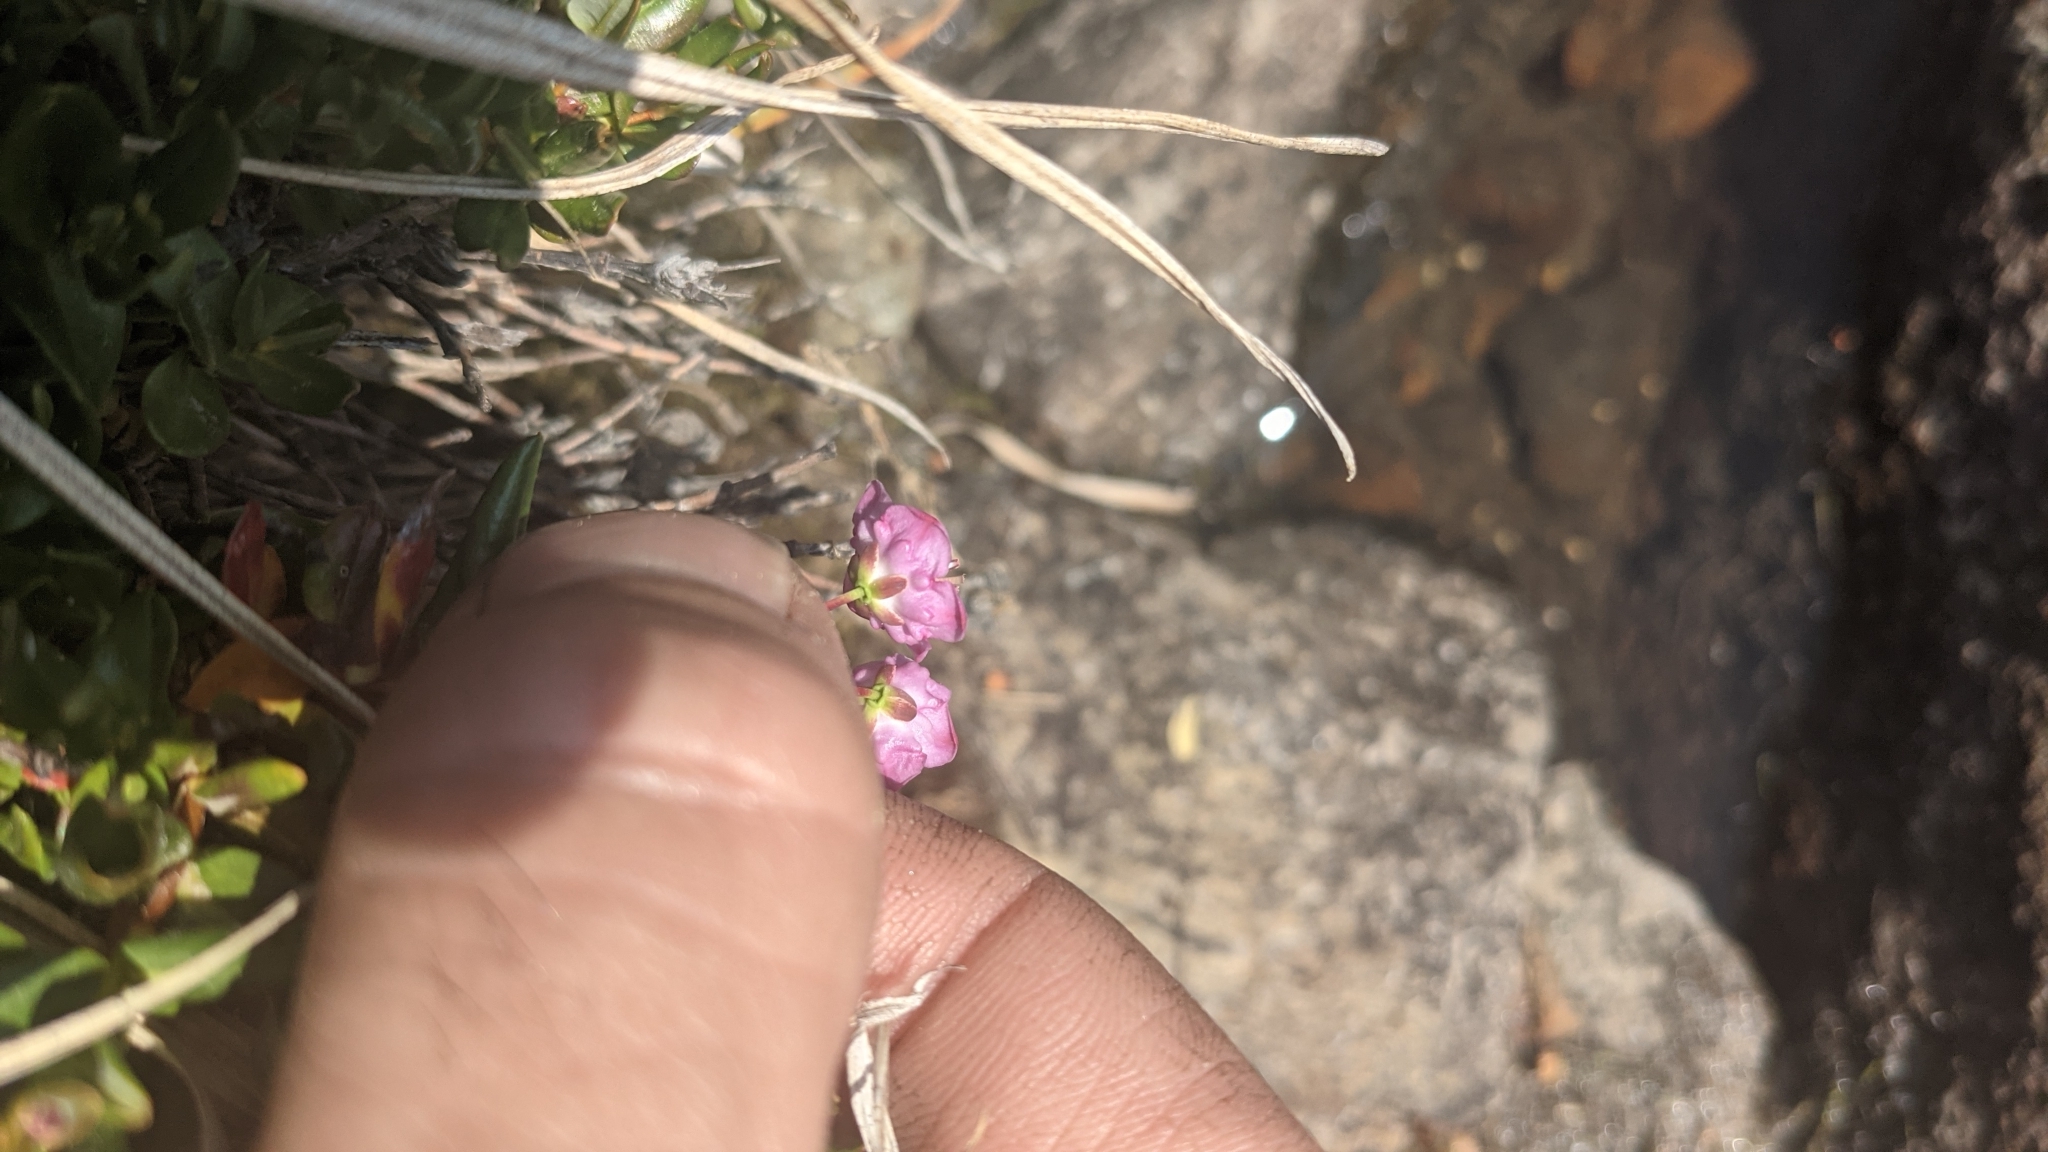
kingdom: Plantae
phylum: Tracheophyta
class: Magnoliopsida
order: Ericales
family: Ericaceae
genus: Kalmia
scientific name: Kalmia microphylla
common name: Alpine bog laurel
